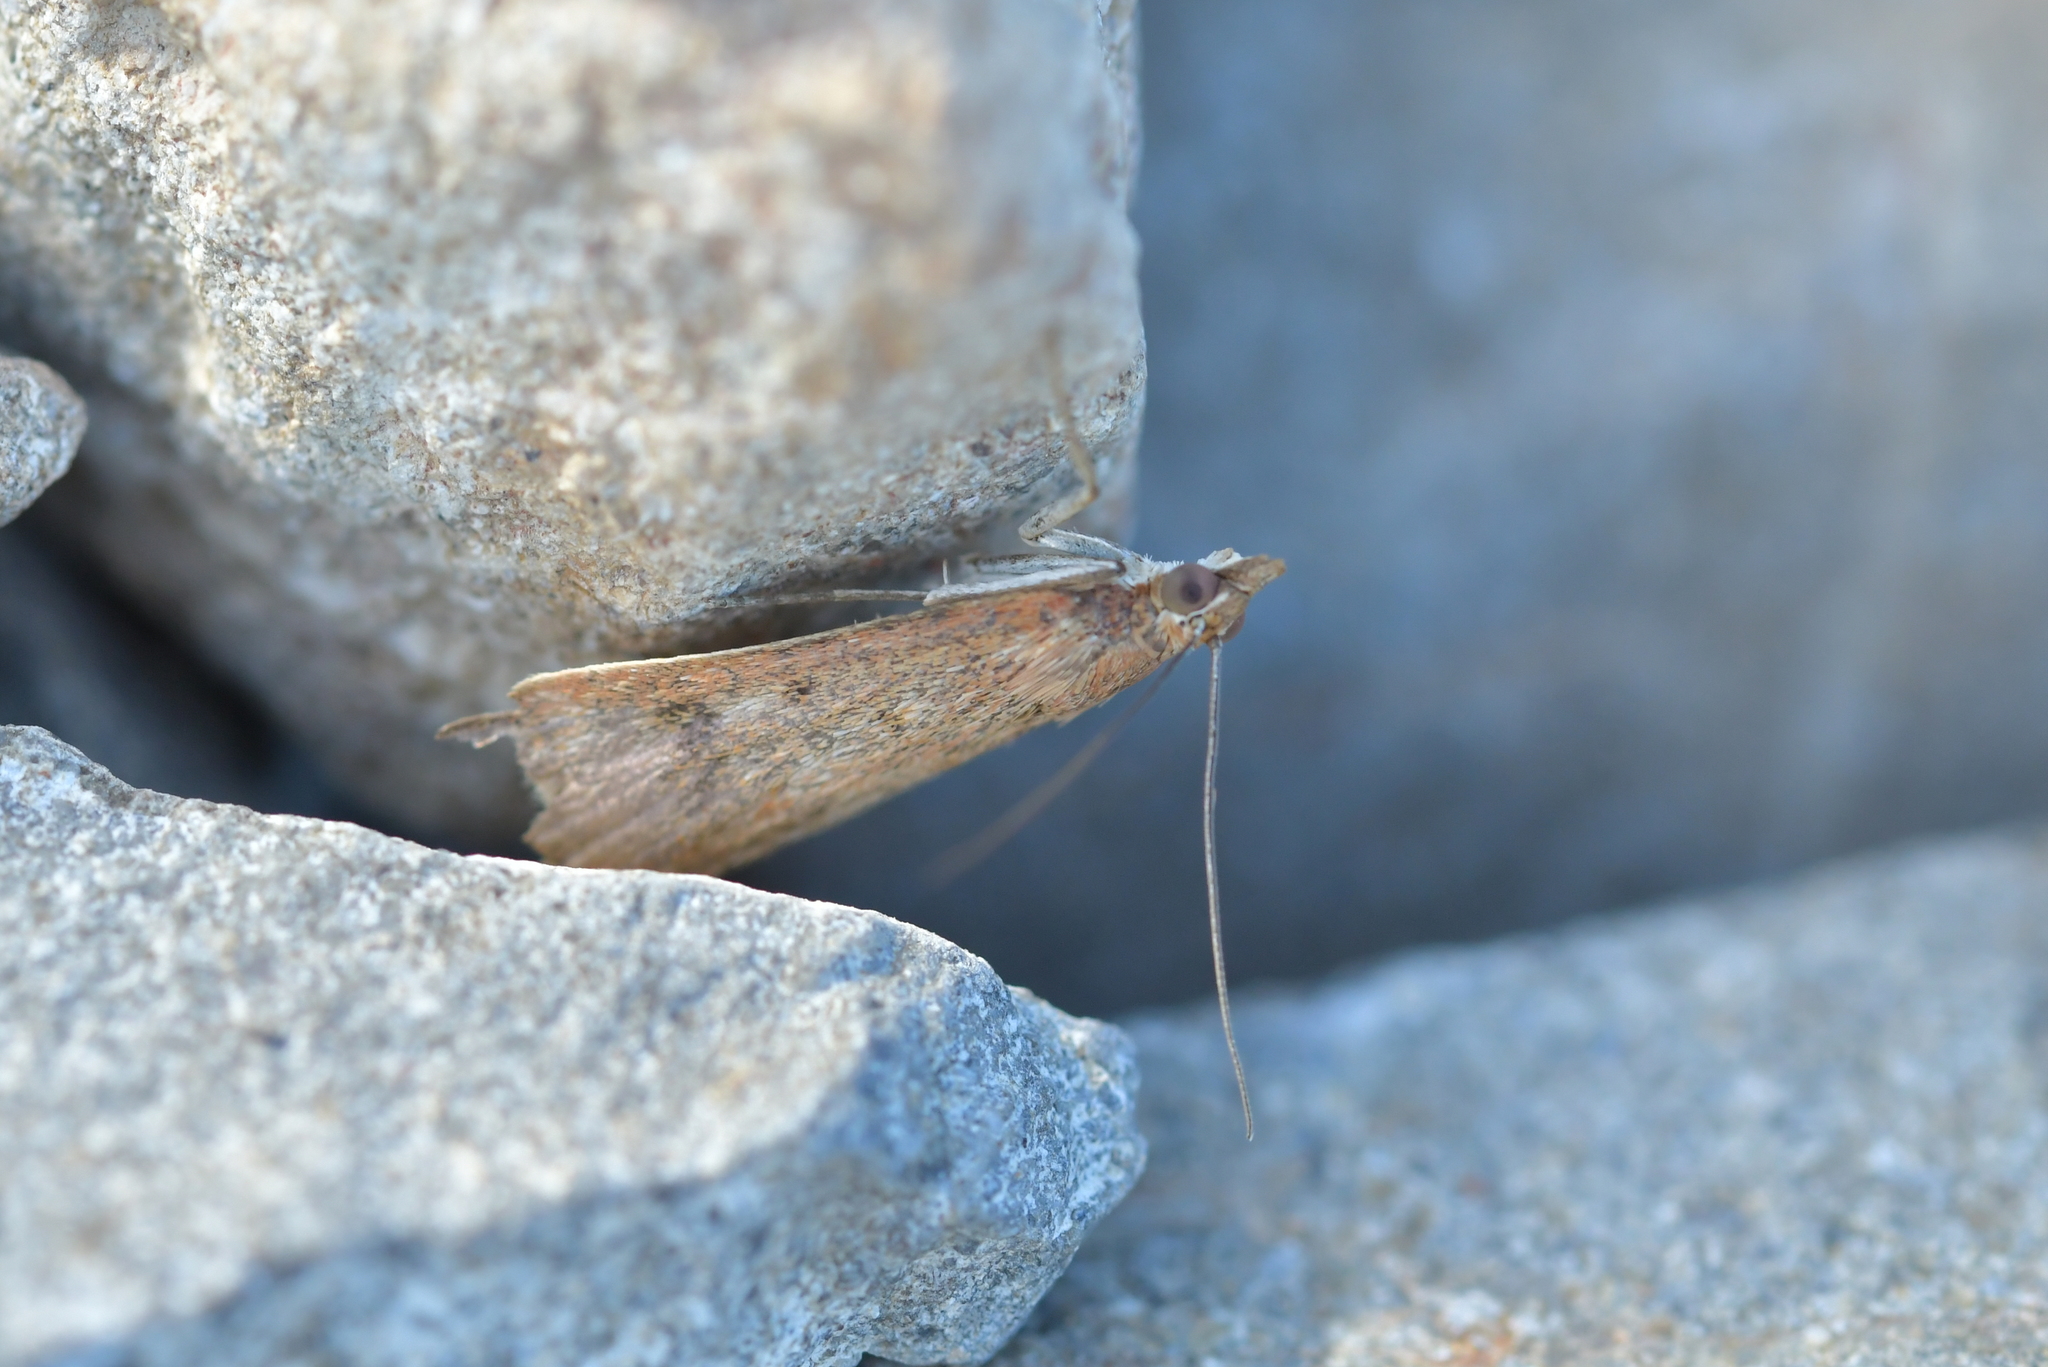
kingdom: Animalia
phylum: Arthropoda
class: Insecta
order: Lepidoptera
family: Crambidae
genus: Achyra
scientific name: Achyra affinitalis
